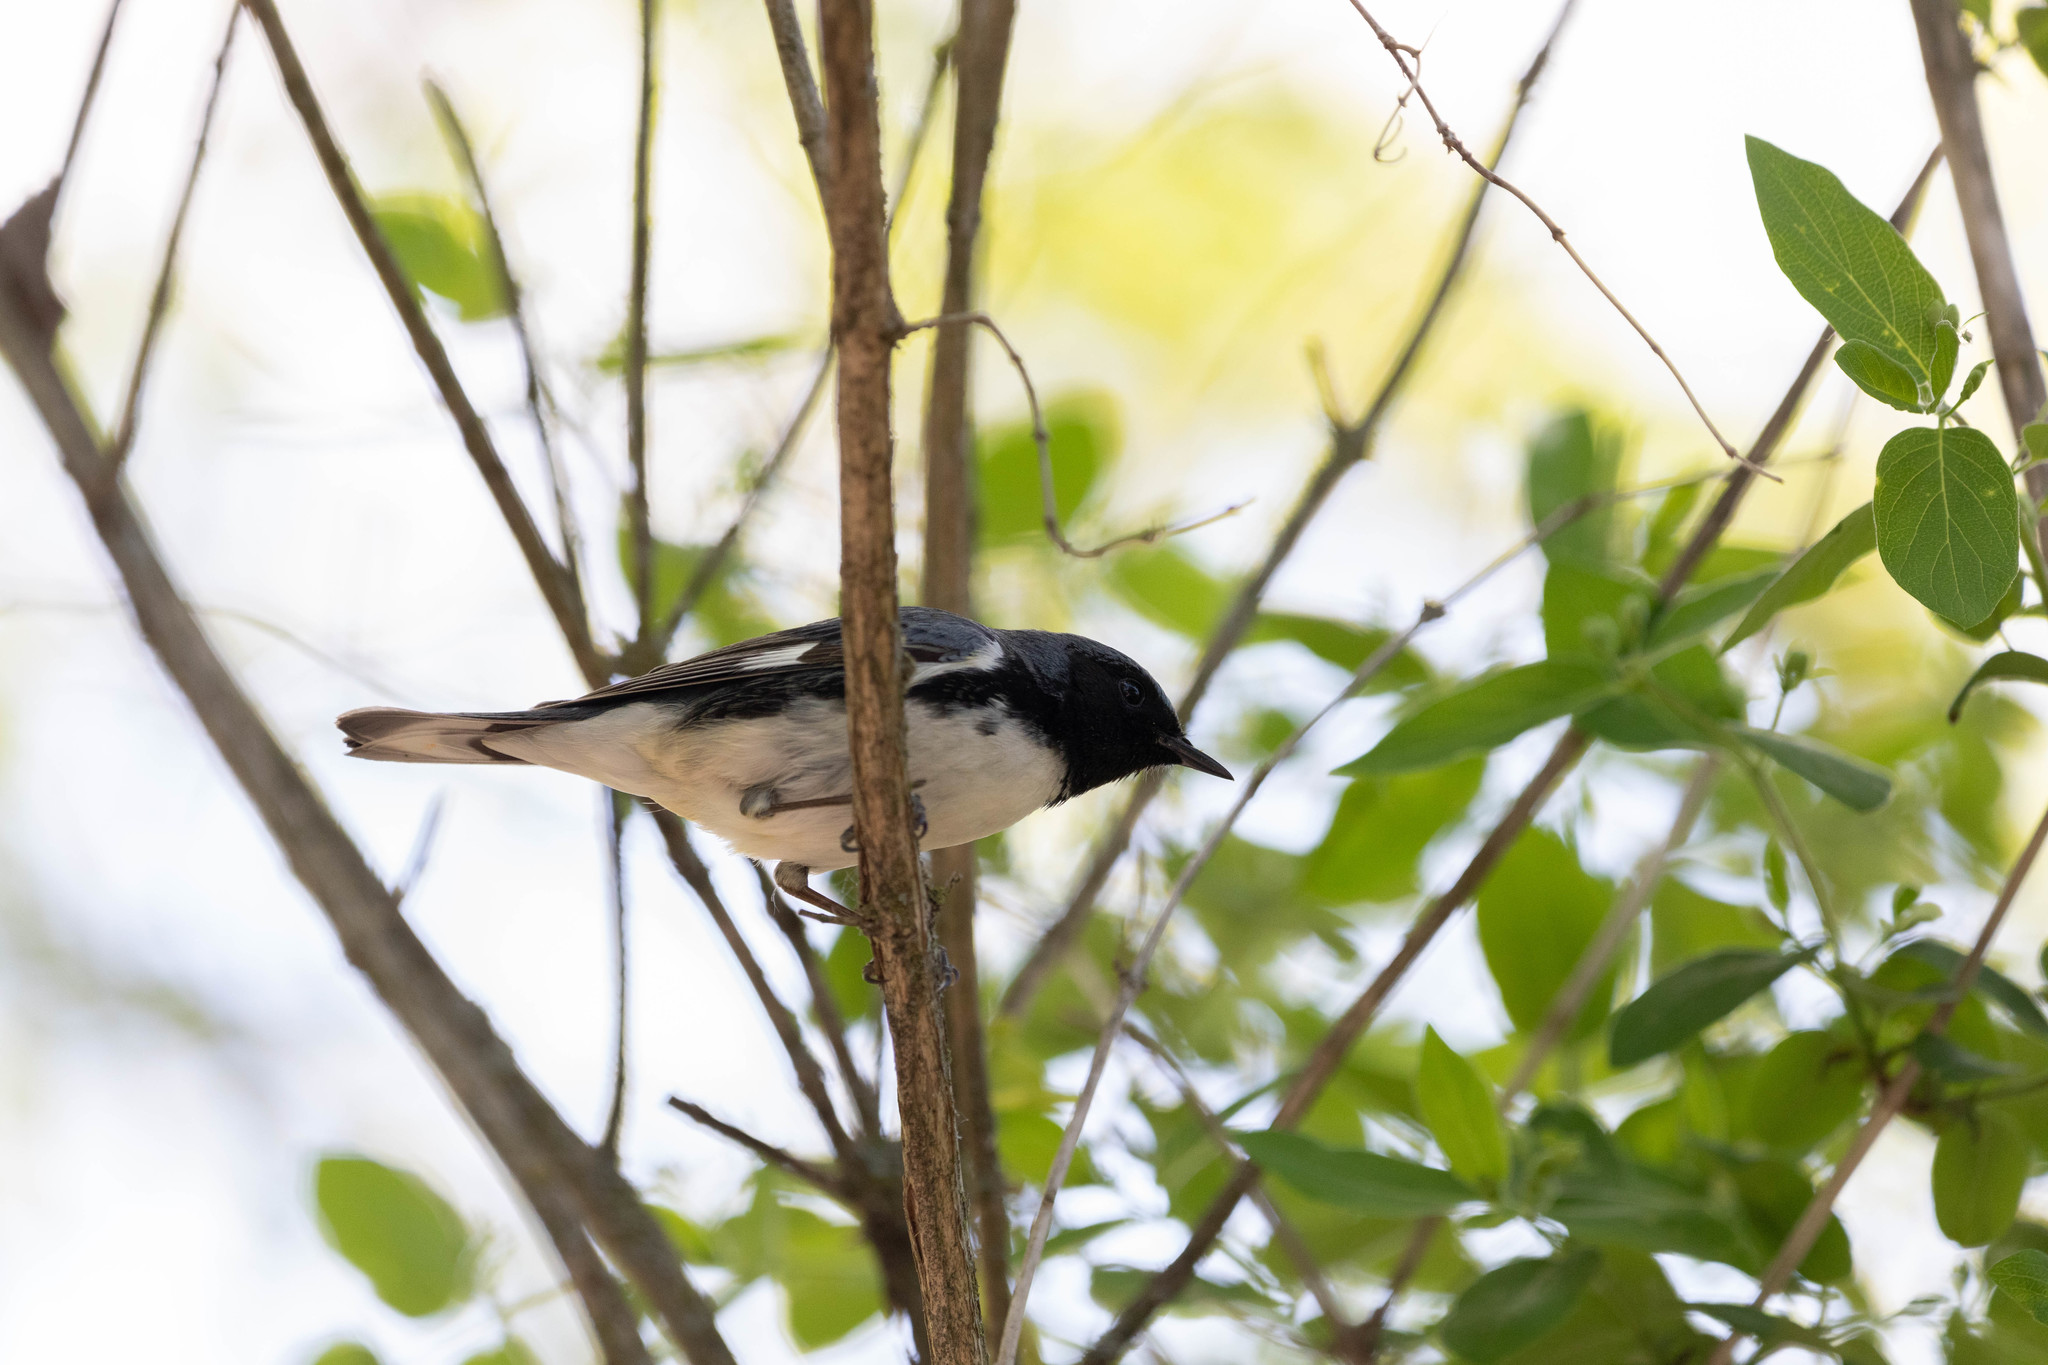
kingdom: Animalia
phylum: Chordata
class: Aves
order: Passeriformes
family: Parulidae
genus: Setophaga
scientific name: Setophaga caerulescens
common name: Black-throated blue warbler
